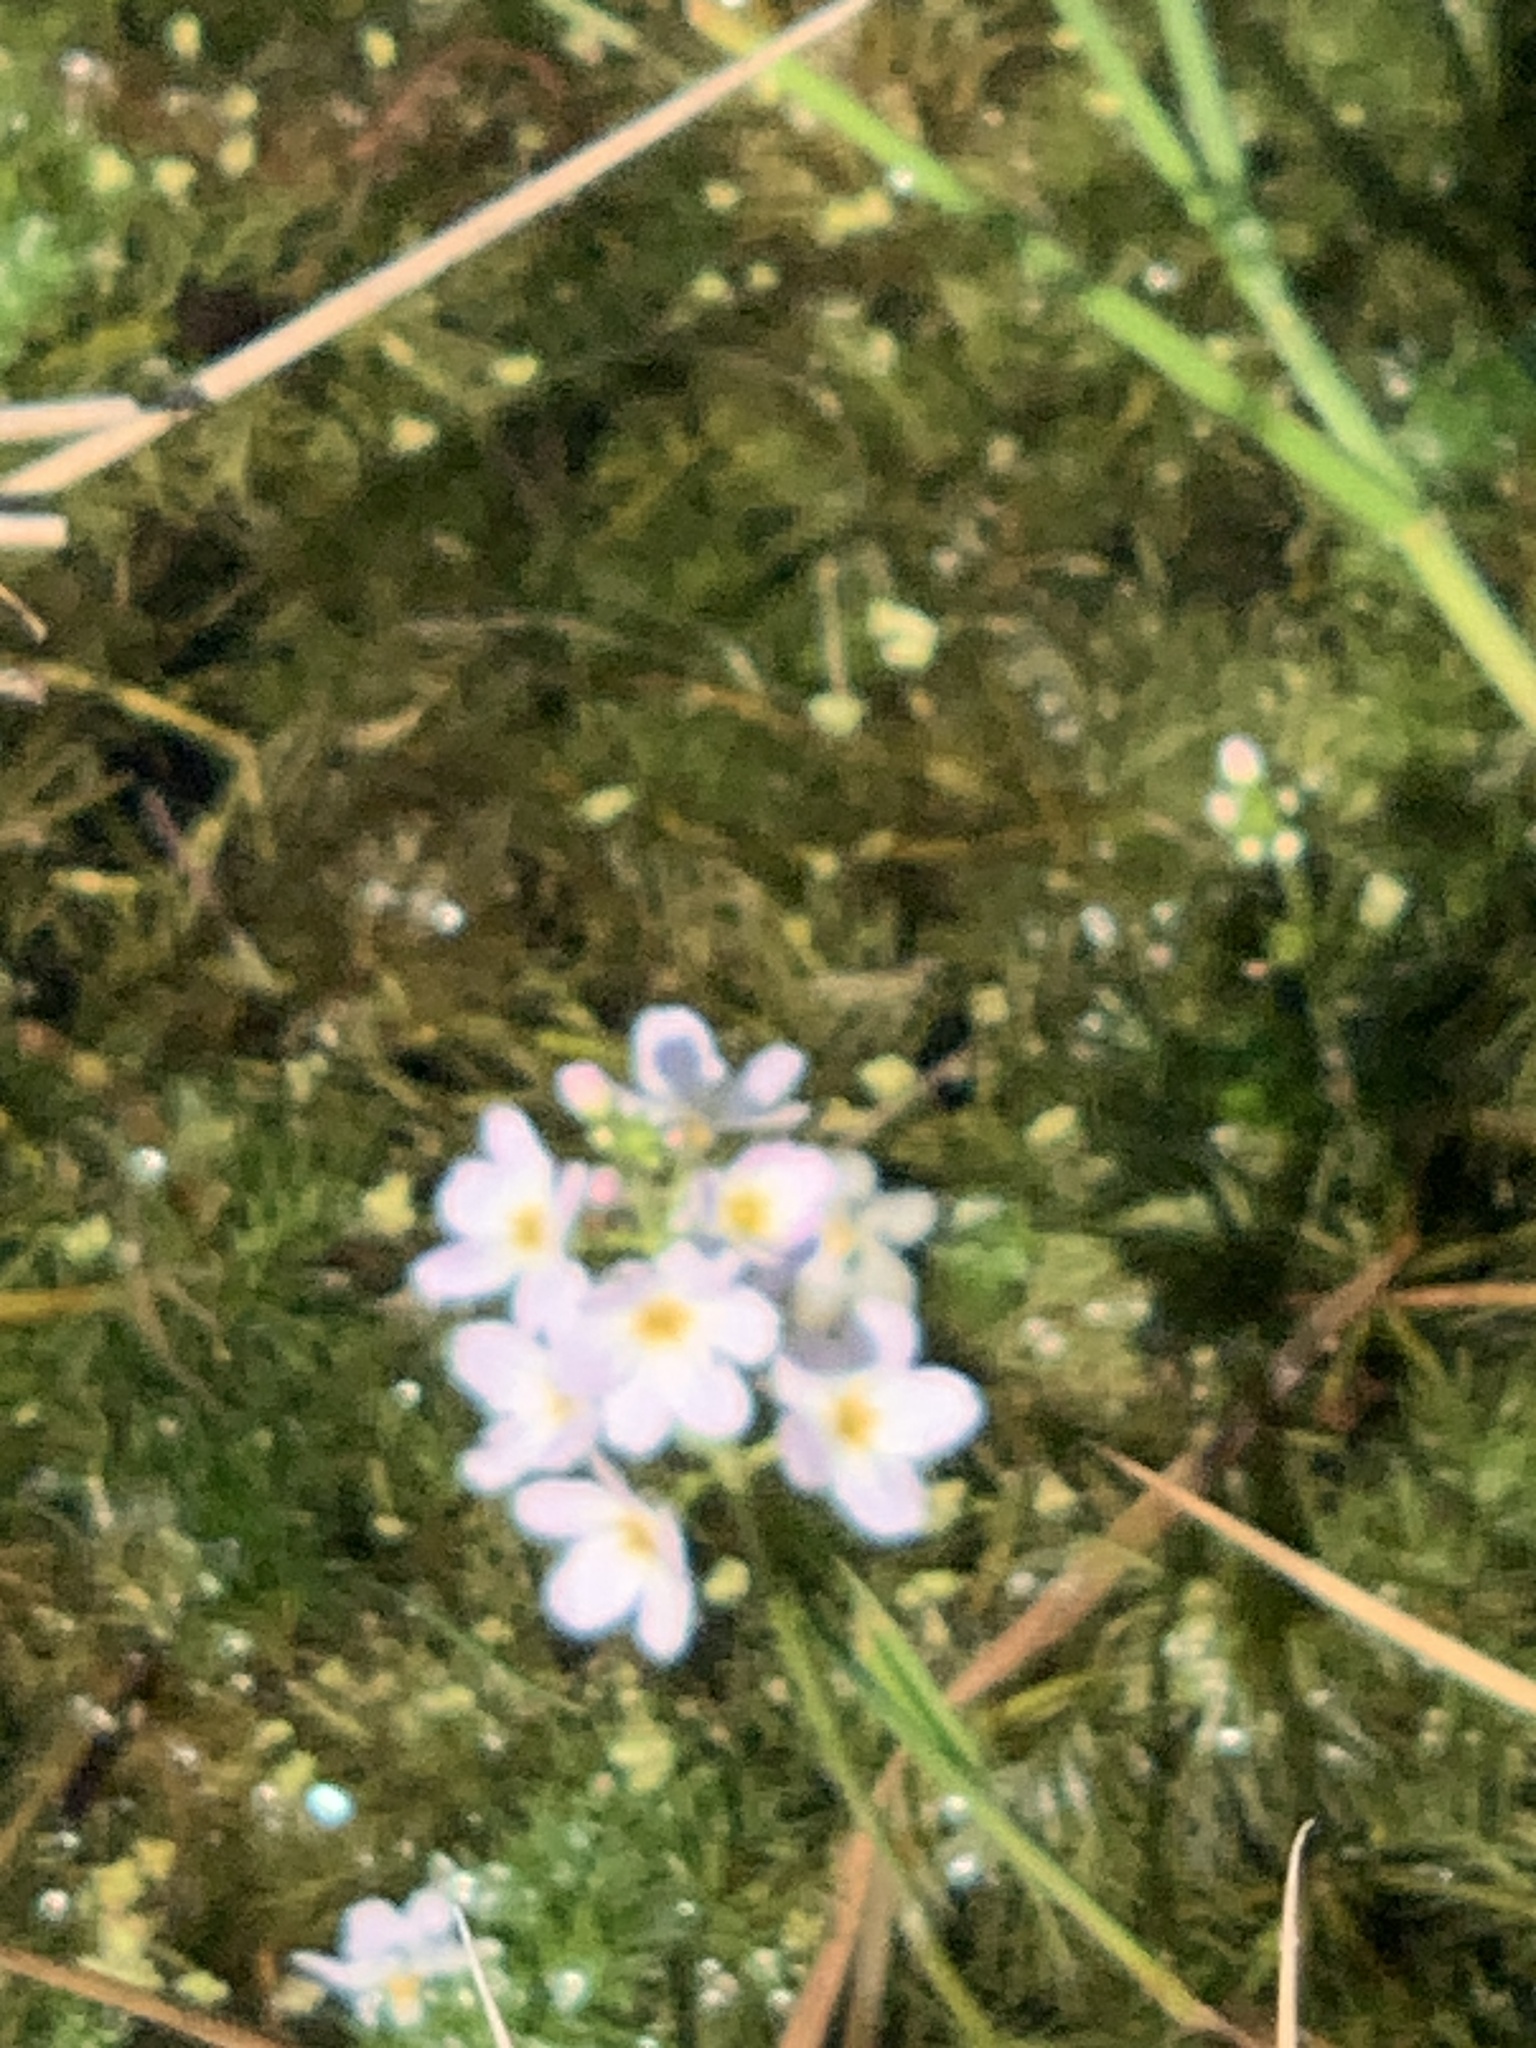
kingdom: Plantae
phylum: Tracheophyta
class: Magnoliopsida
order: Ericales
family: Primulaceae
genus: Hottonia
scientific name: Hottonia palustris
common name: Water-violet
